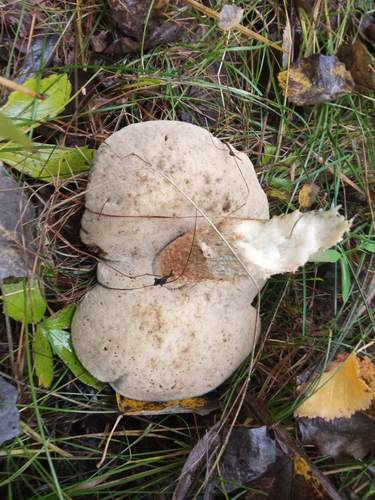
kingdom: Fungi
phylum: Basidiomycota
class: Agaricomycetes
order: Boletales
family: Boletaceae
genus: Leccinum
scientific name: Leccinum aurantiacum
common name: Orange bolete
